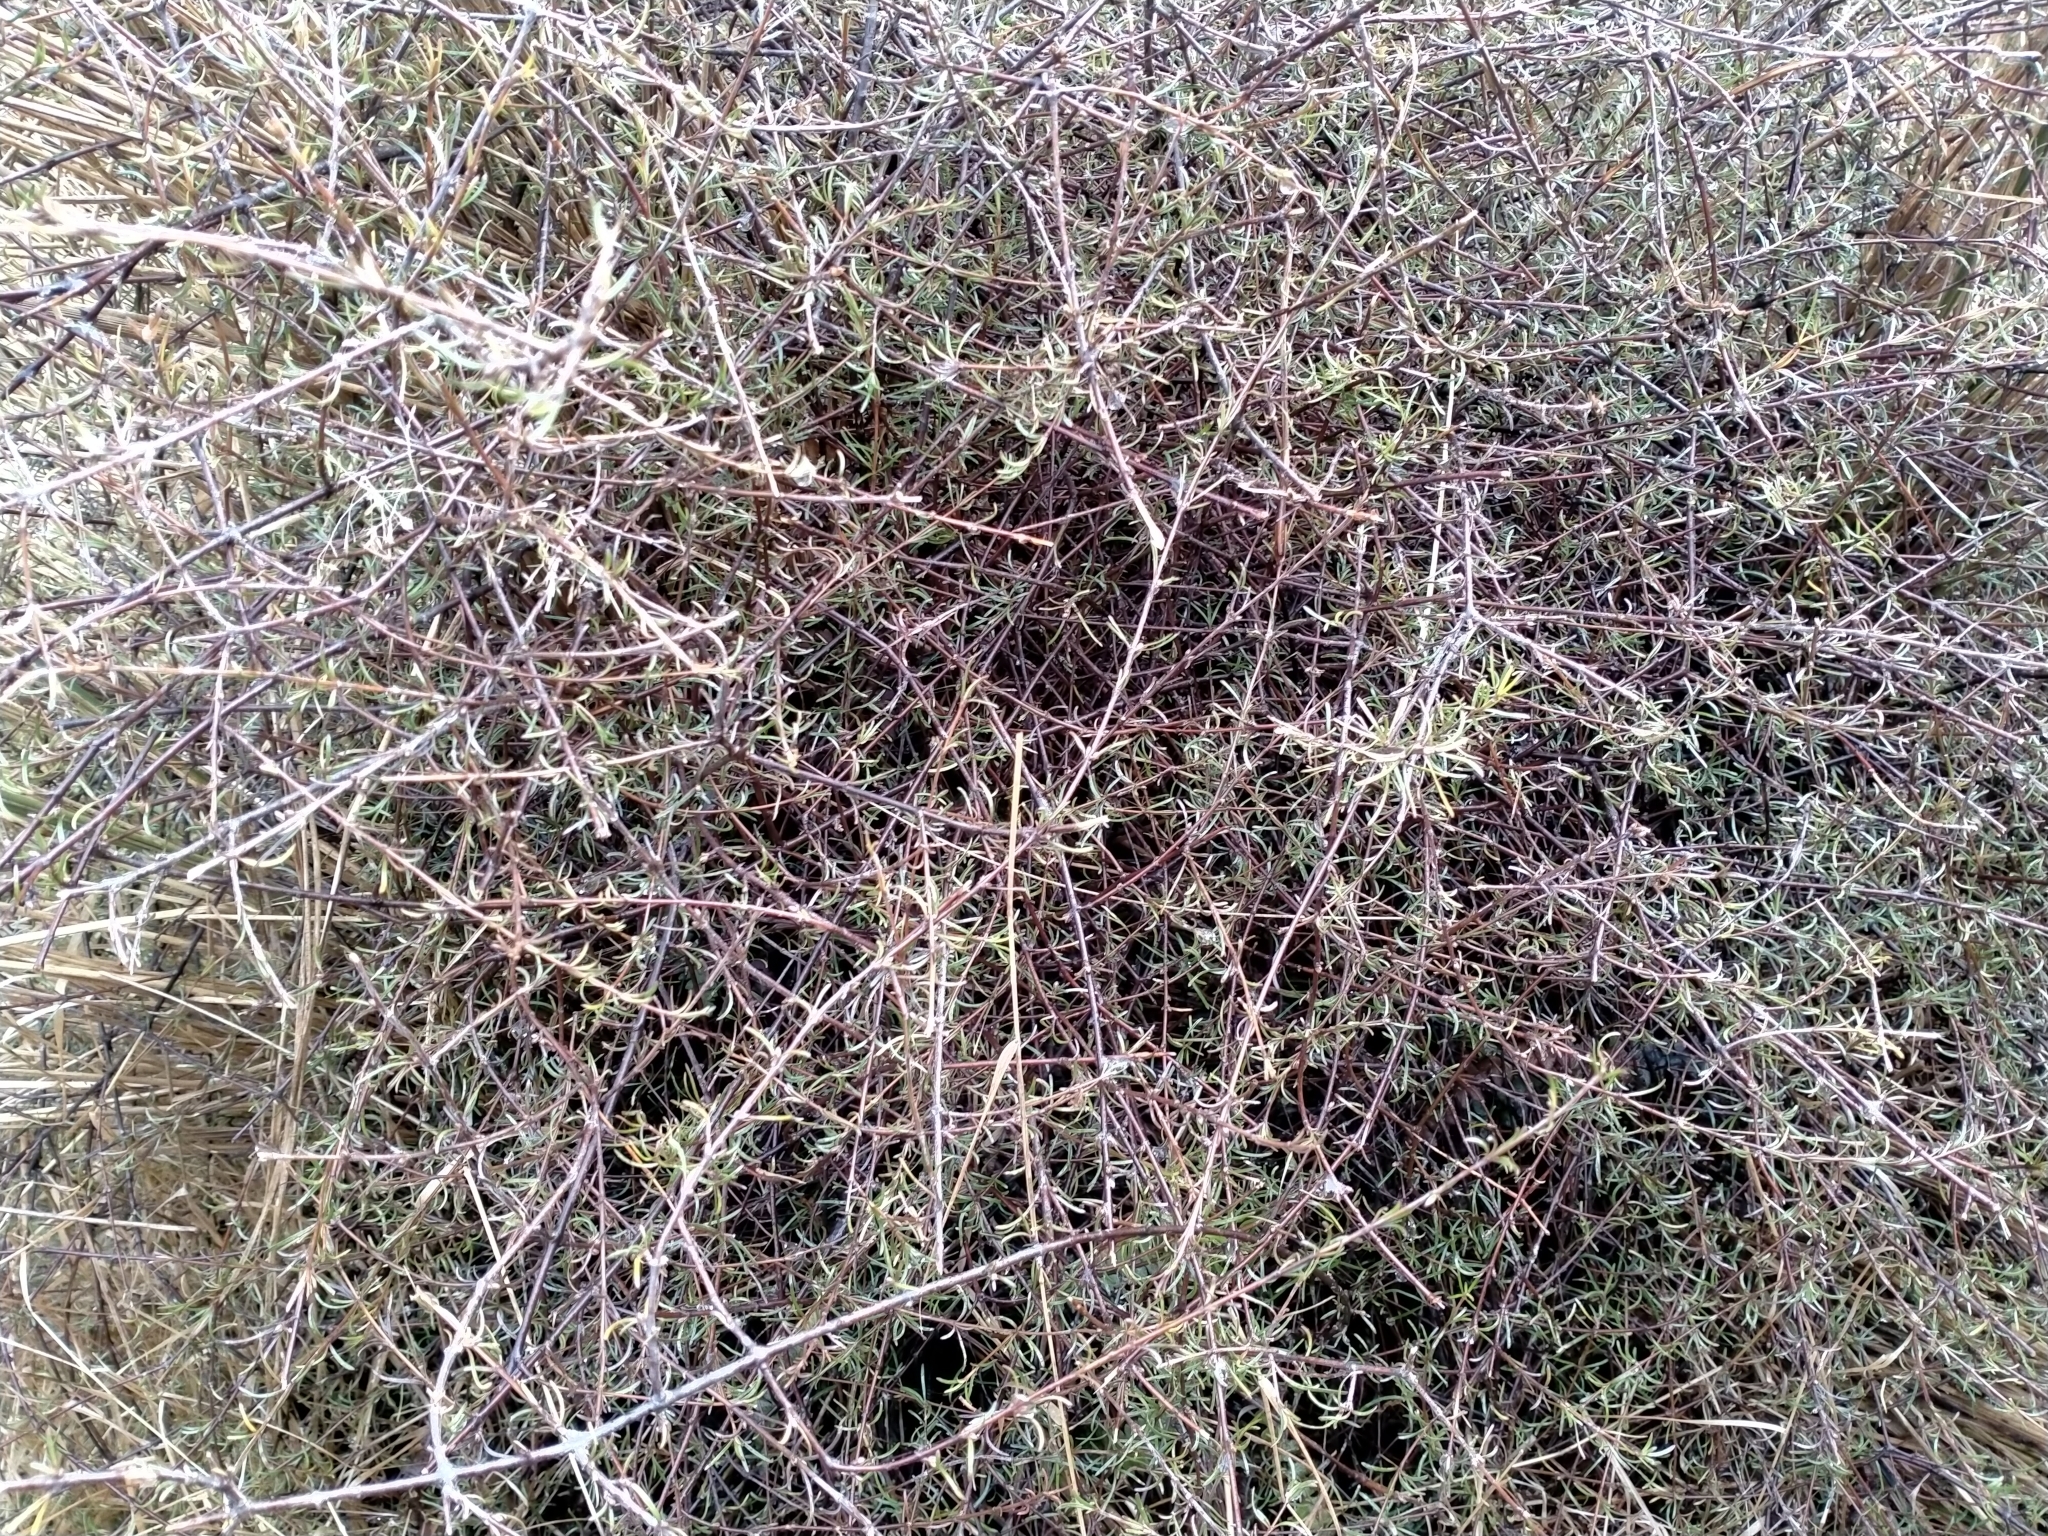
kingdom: Plantae
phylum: Tracheophyta
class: Magnoliopsida
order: Gentianales
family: Rubiaceae
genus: Coprosma
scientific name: Coprosma elatirioides
